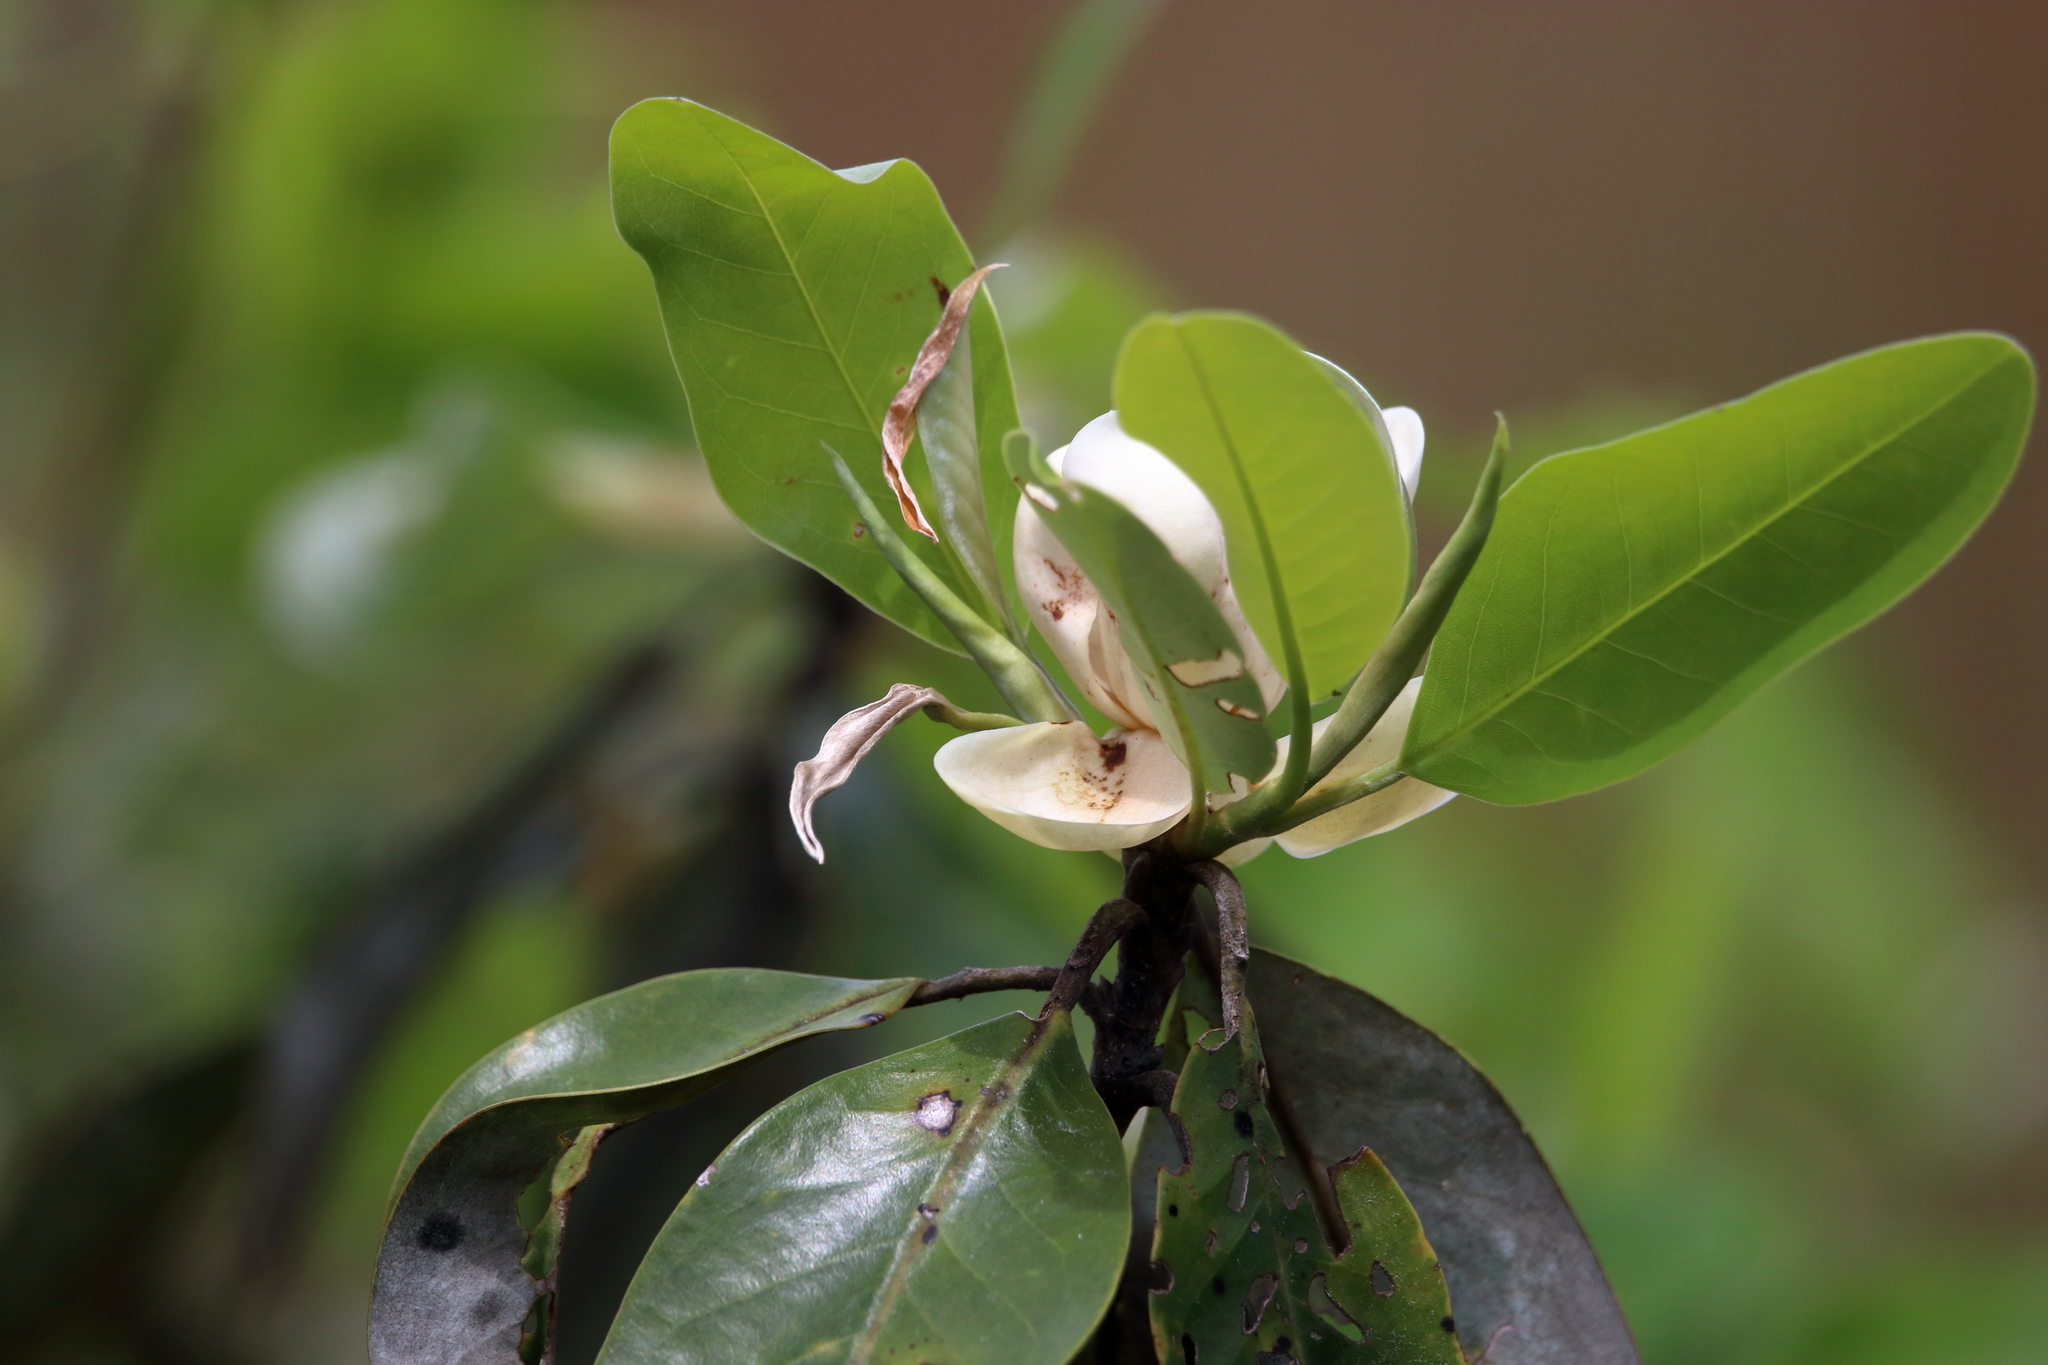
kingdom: Plantae
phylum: Tracheophyta
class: Magnoliopsida
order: Magnoliales
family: Magnoliaceae
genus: Magnolia
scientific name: Magnolia virginiana
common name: Swamp bay
